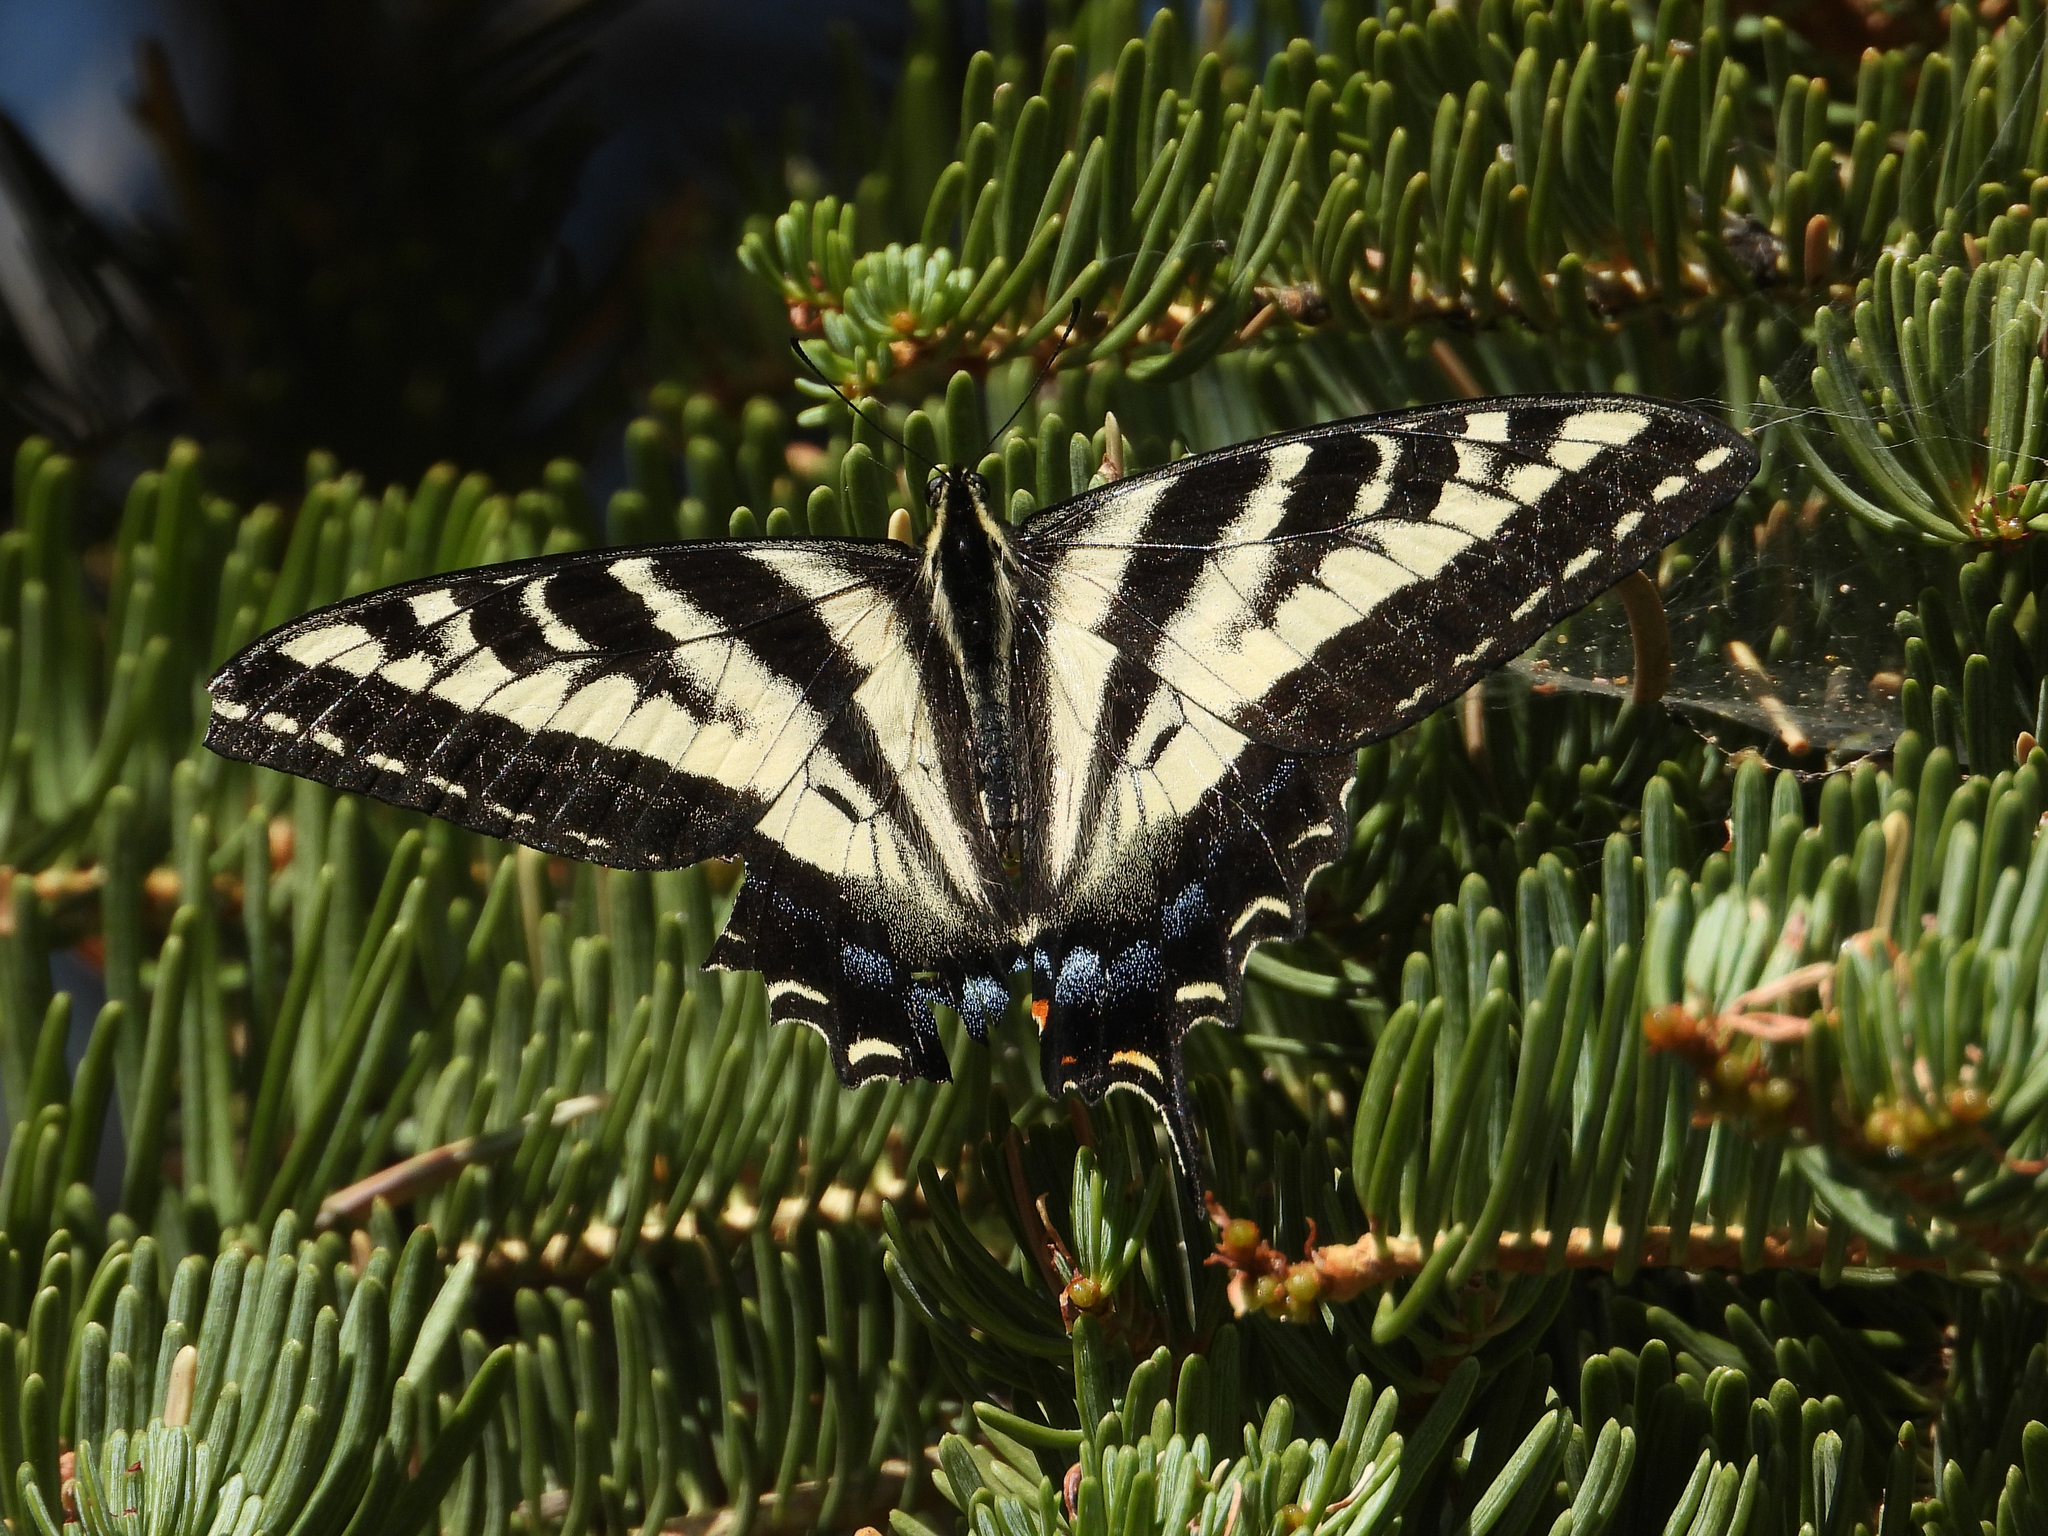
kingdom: Animalia
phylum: Arthropoda
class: Insecta
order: Lepidoptera
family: Papilionidae
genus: Papilio
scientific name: Papilio eurymedon
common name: Pale tiger swallowtail
